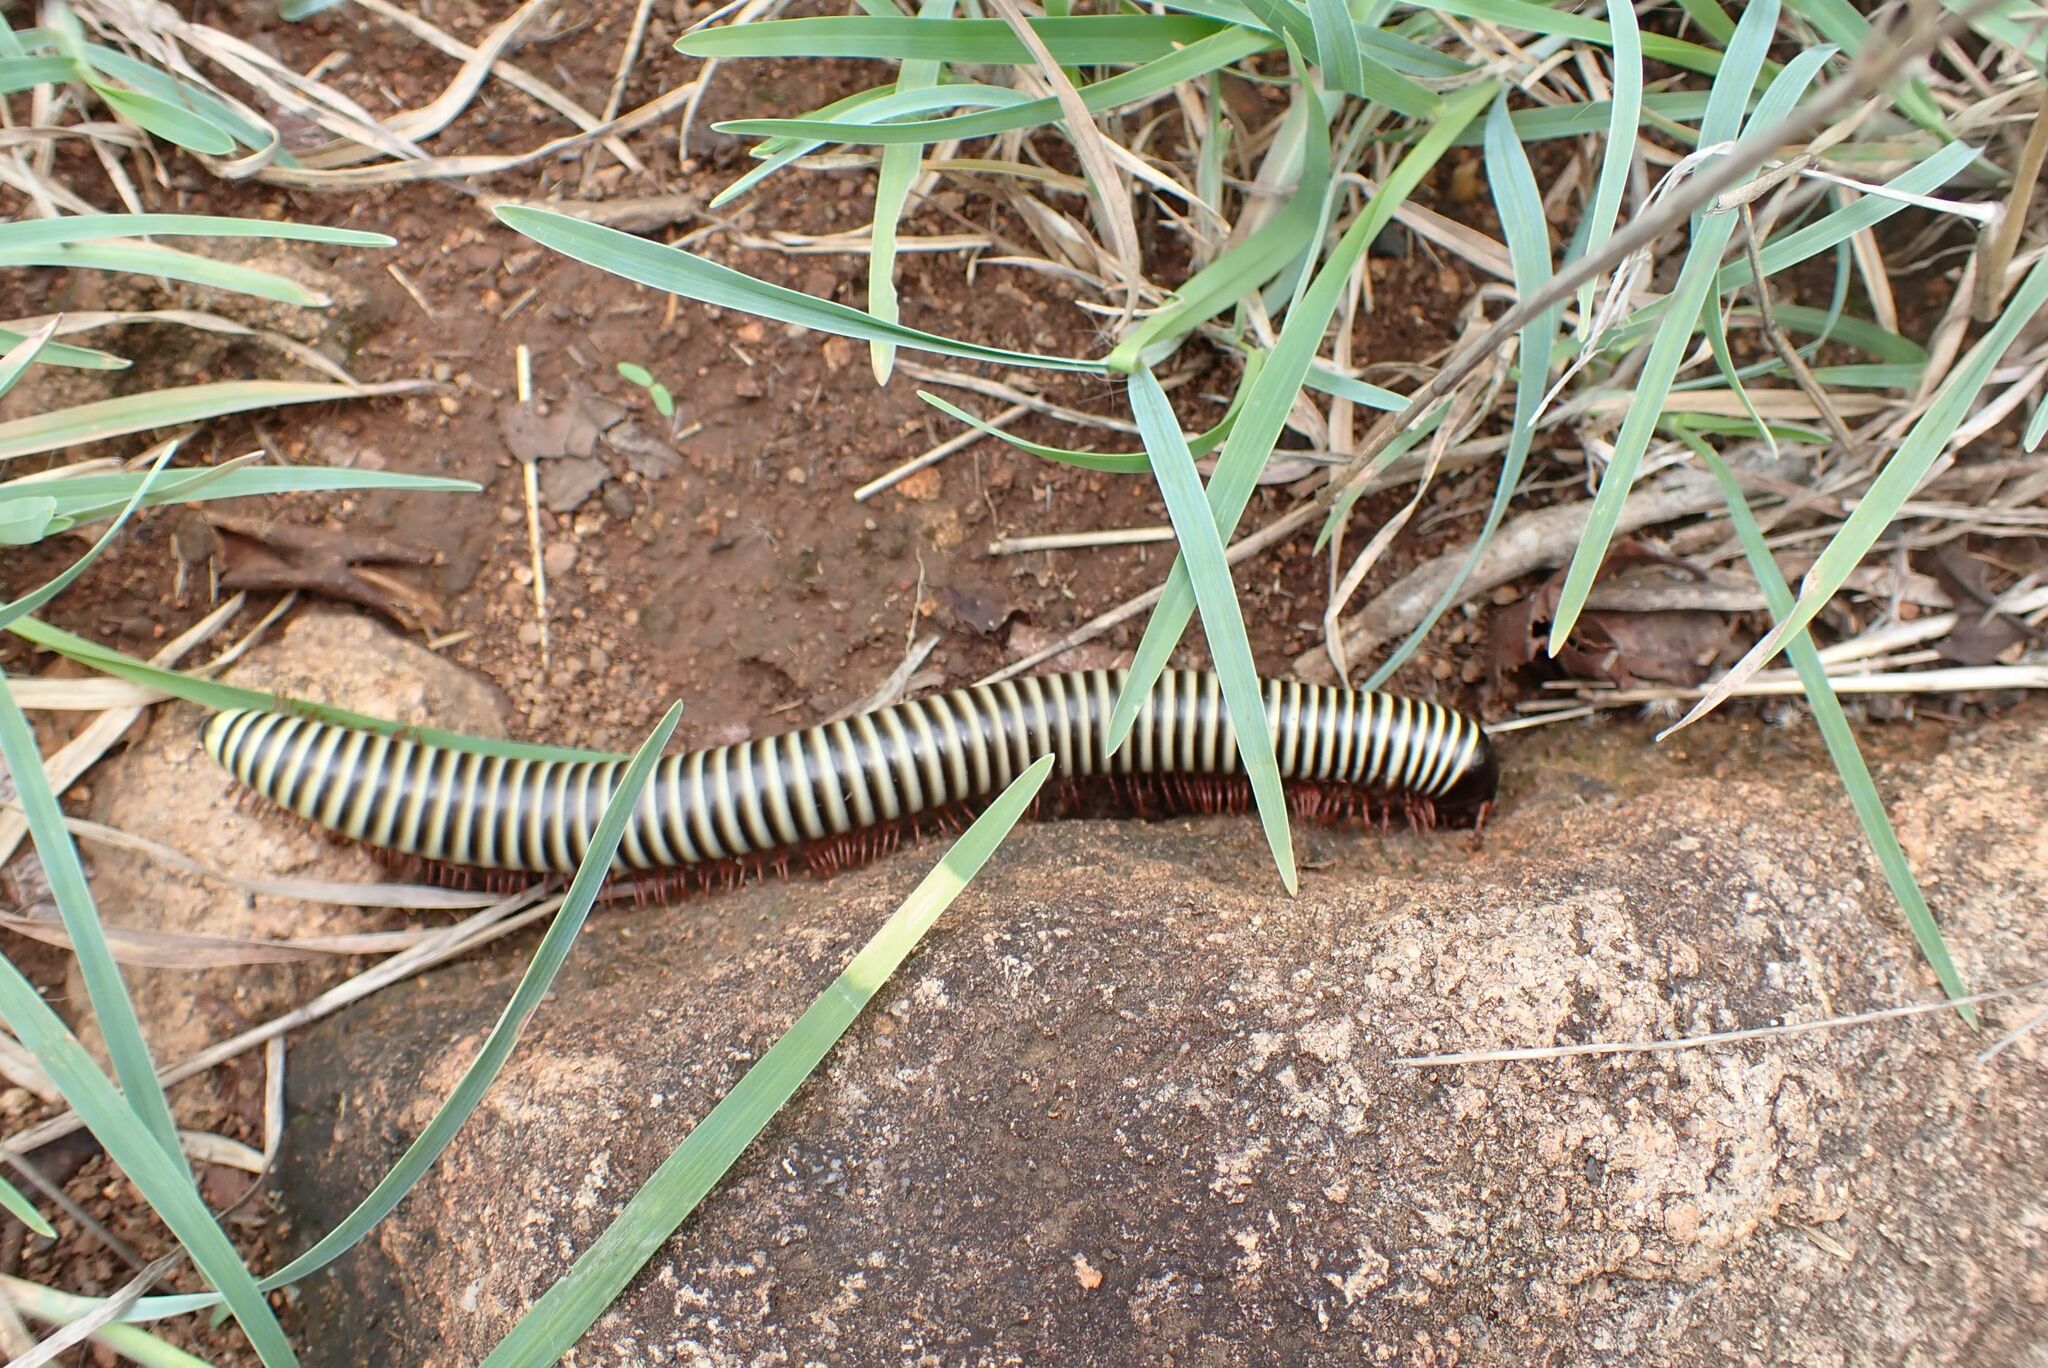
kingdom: Animalia
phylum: Arthropoda
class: Diplopoda
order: Spirostreptida
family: Spirostreptidae
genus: Doratogonus
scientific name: Doratogonus flavifilis
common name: Yellow-banded black millipede
